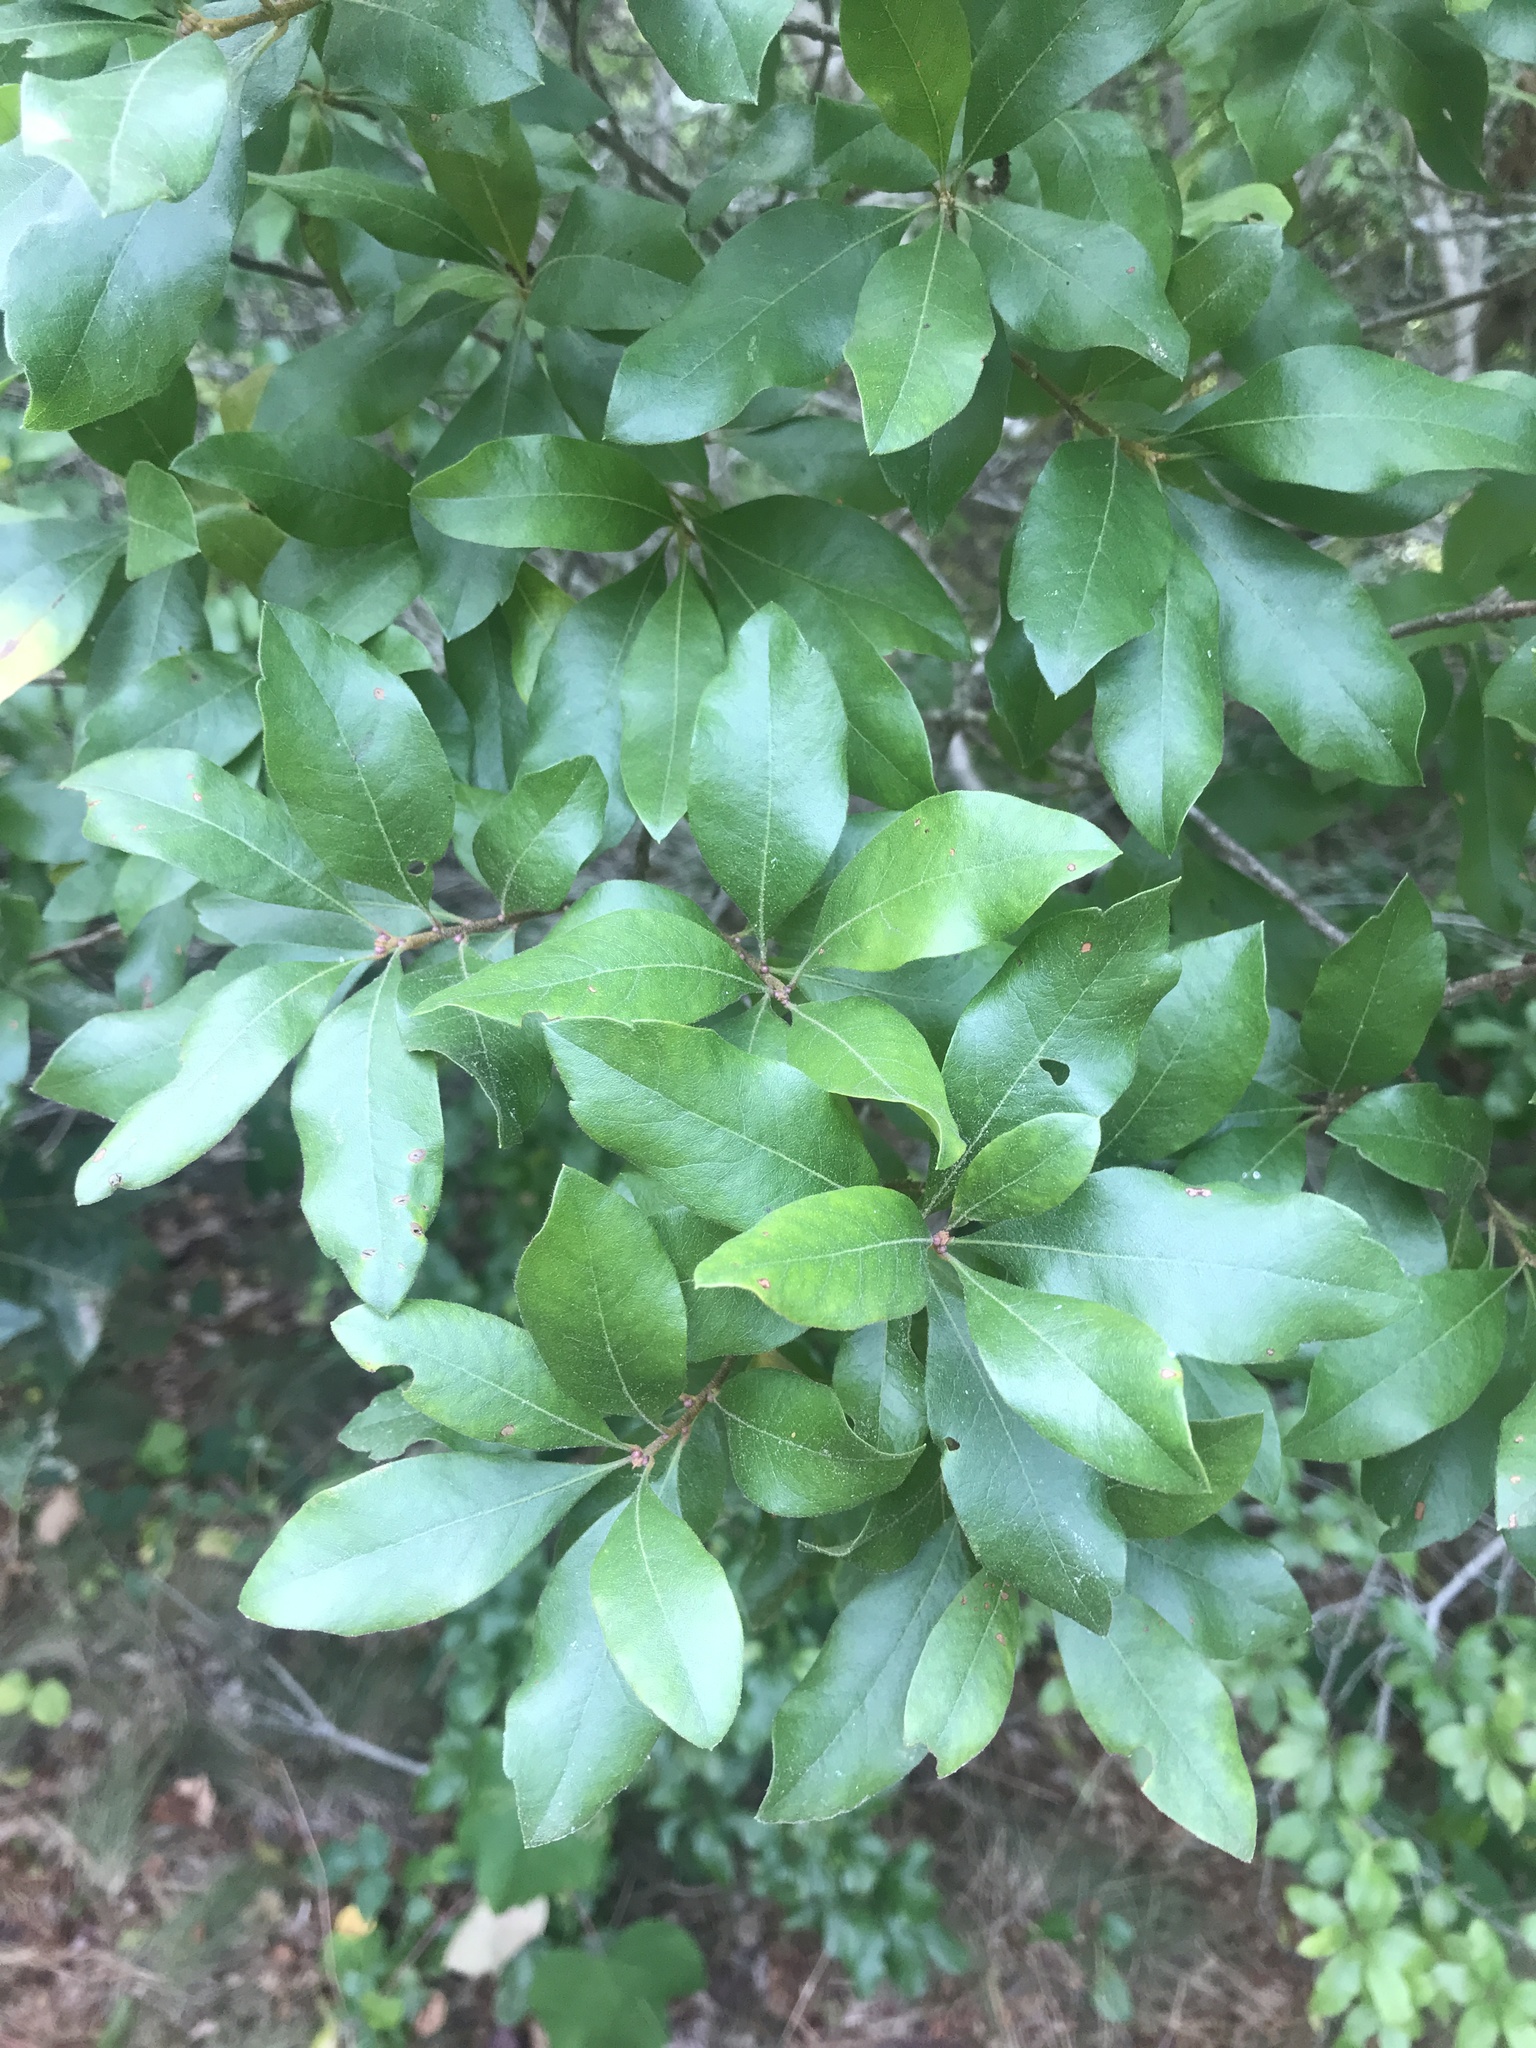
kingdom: Plantae
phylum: Tracheophyta
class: Magnoliopsida
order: Fagales
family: Myricaceae
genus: Morella
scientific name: Morella pensylvanica
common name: Northern bayberry
